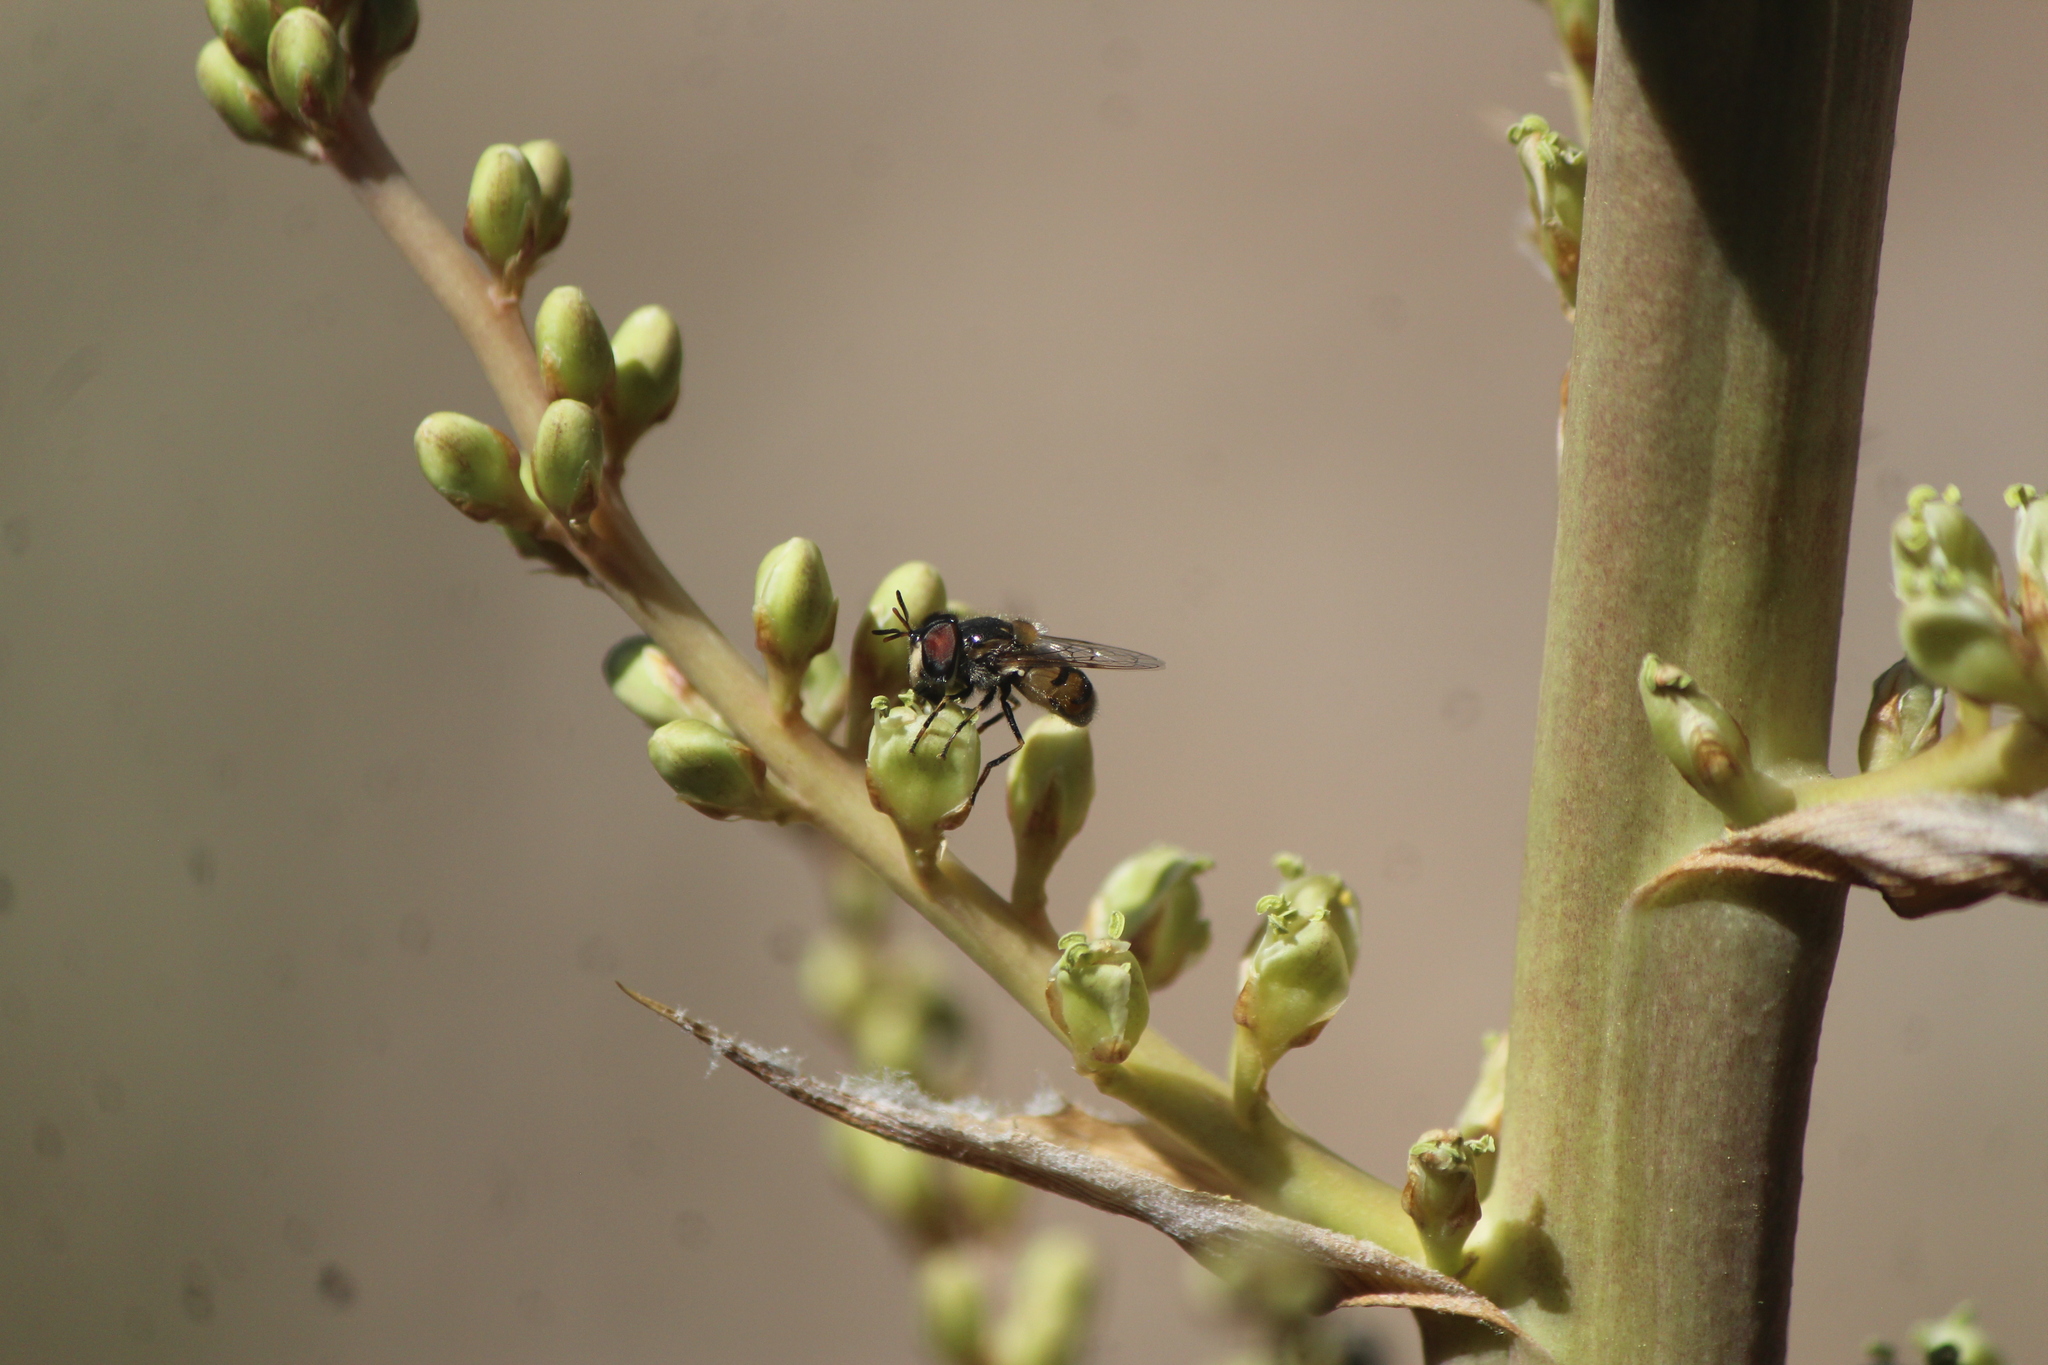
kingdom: Animalia
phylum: Arthropoda
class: Insecta
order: Diptera
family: Syrphidae
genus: Copestylum
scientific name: Copestylum marginatum
